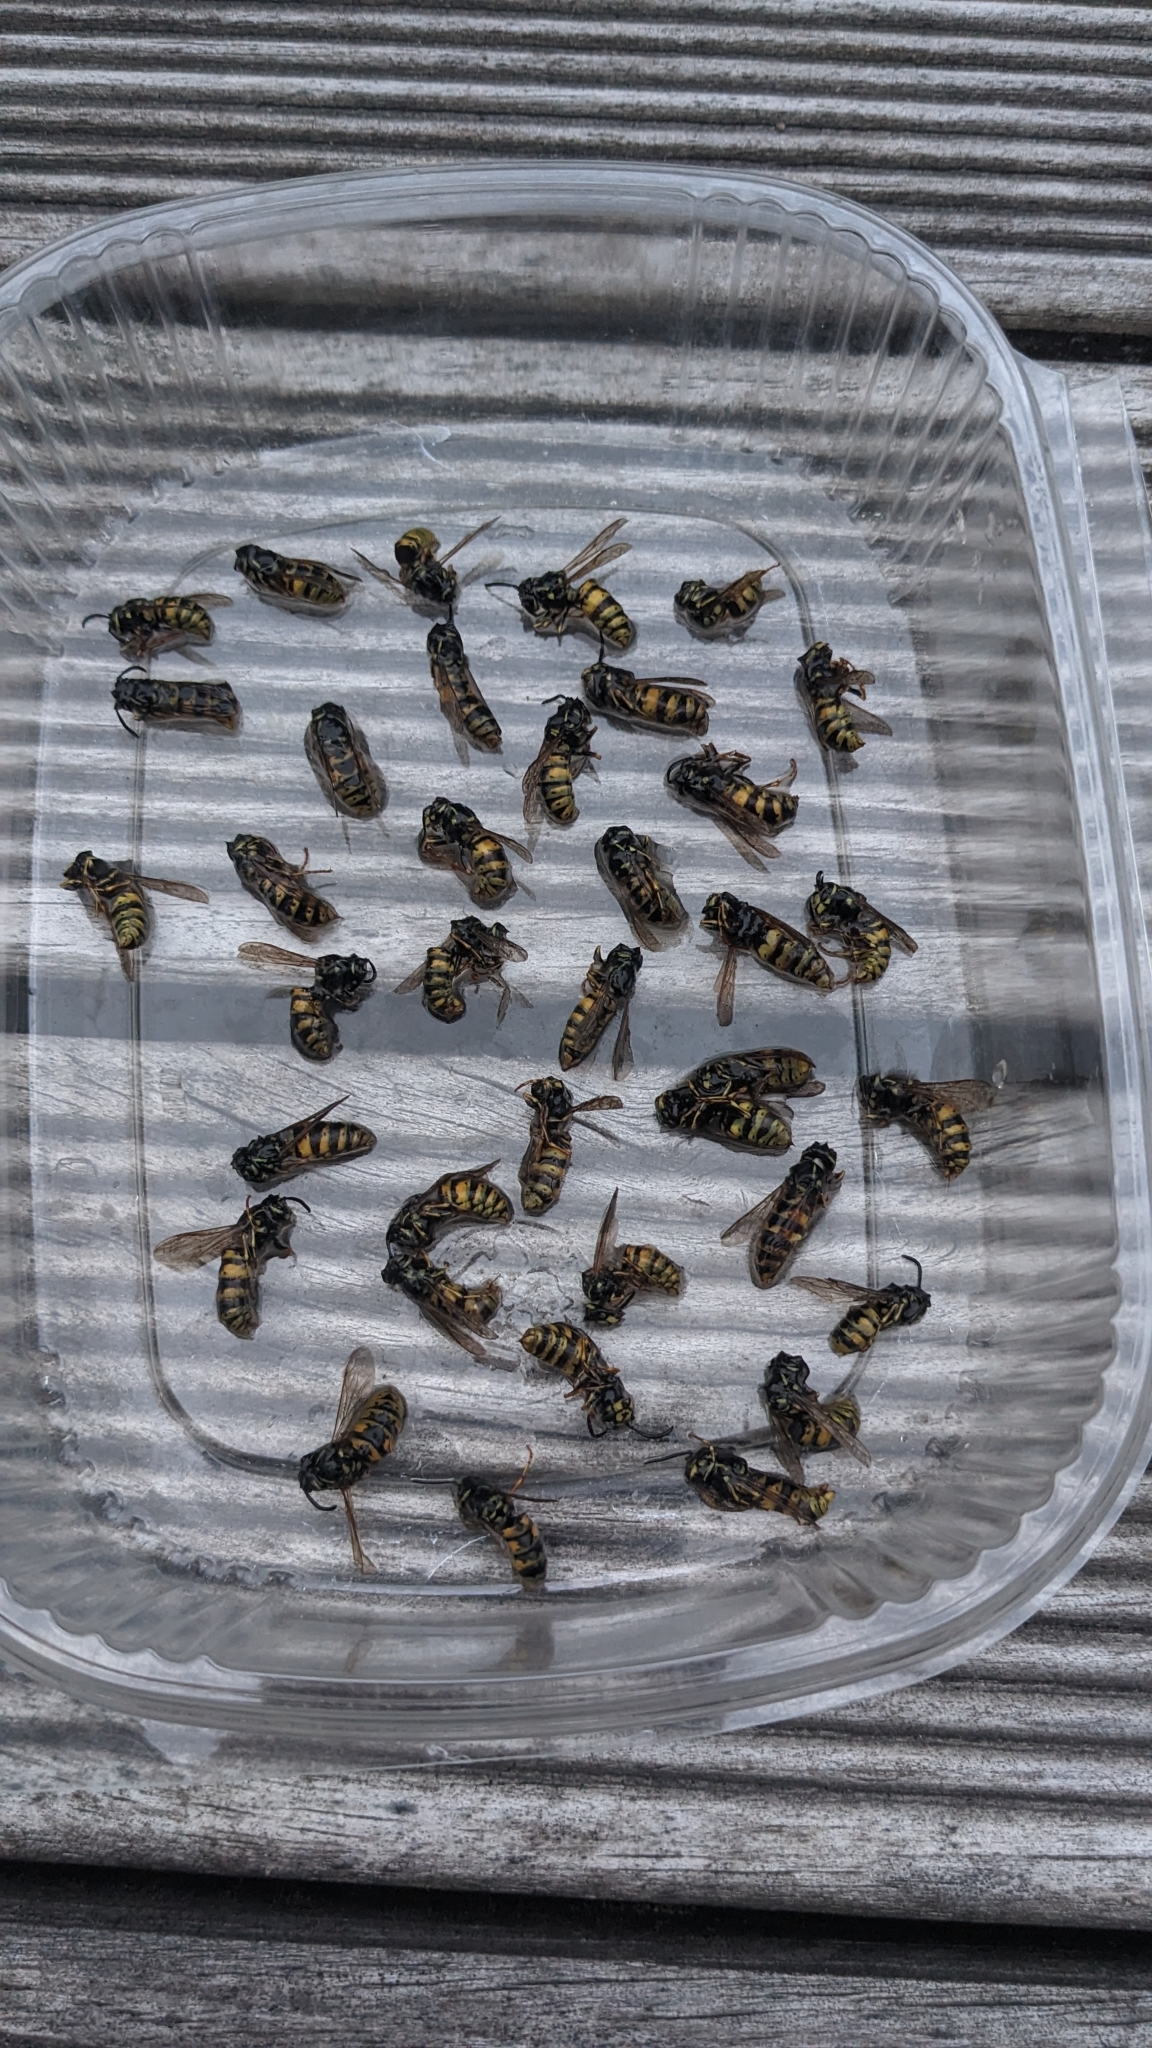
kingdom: Animalia
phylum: Arthropoda
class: Insecta
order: Hymenoptera
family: Vespidae
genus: Vespula
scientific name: Vespula vulgaris
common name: Common wasp
